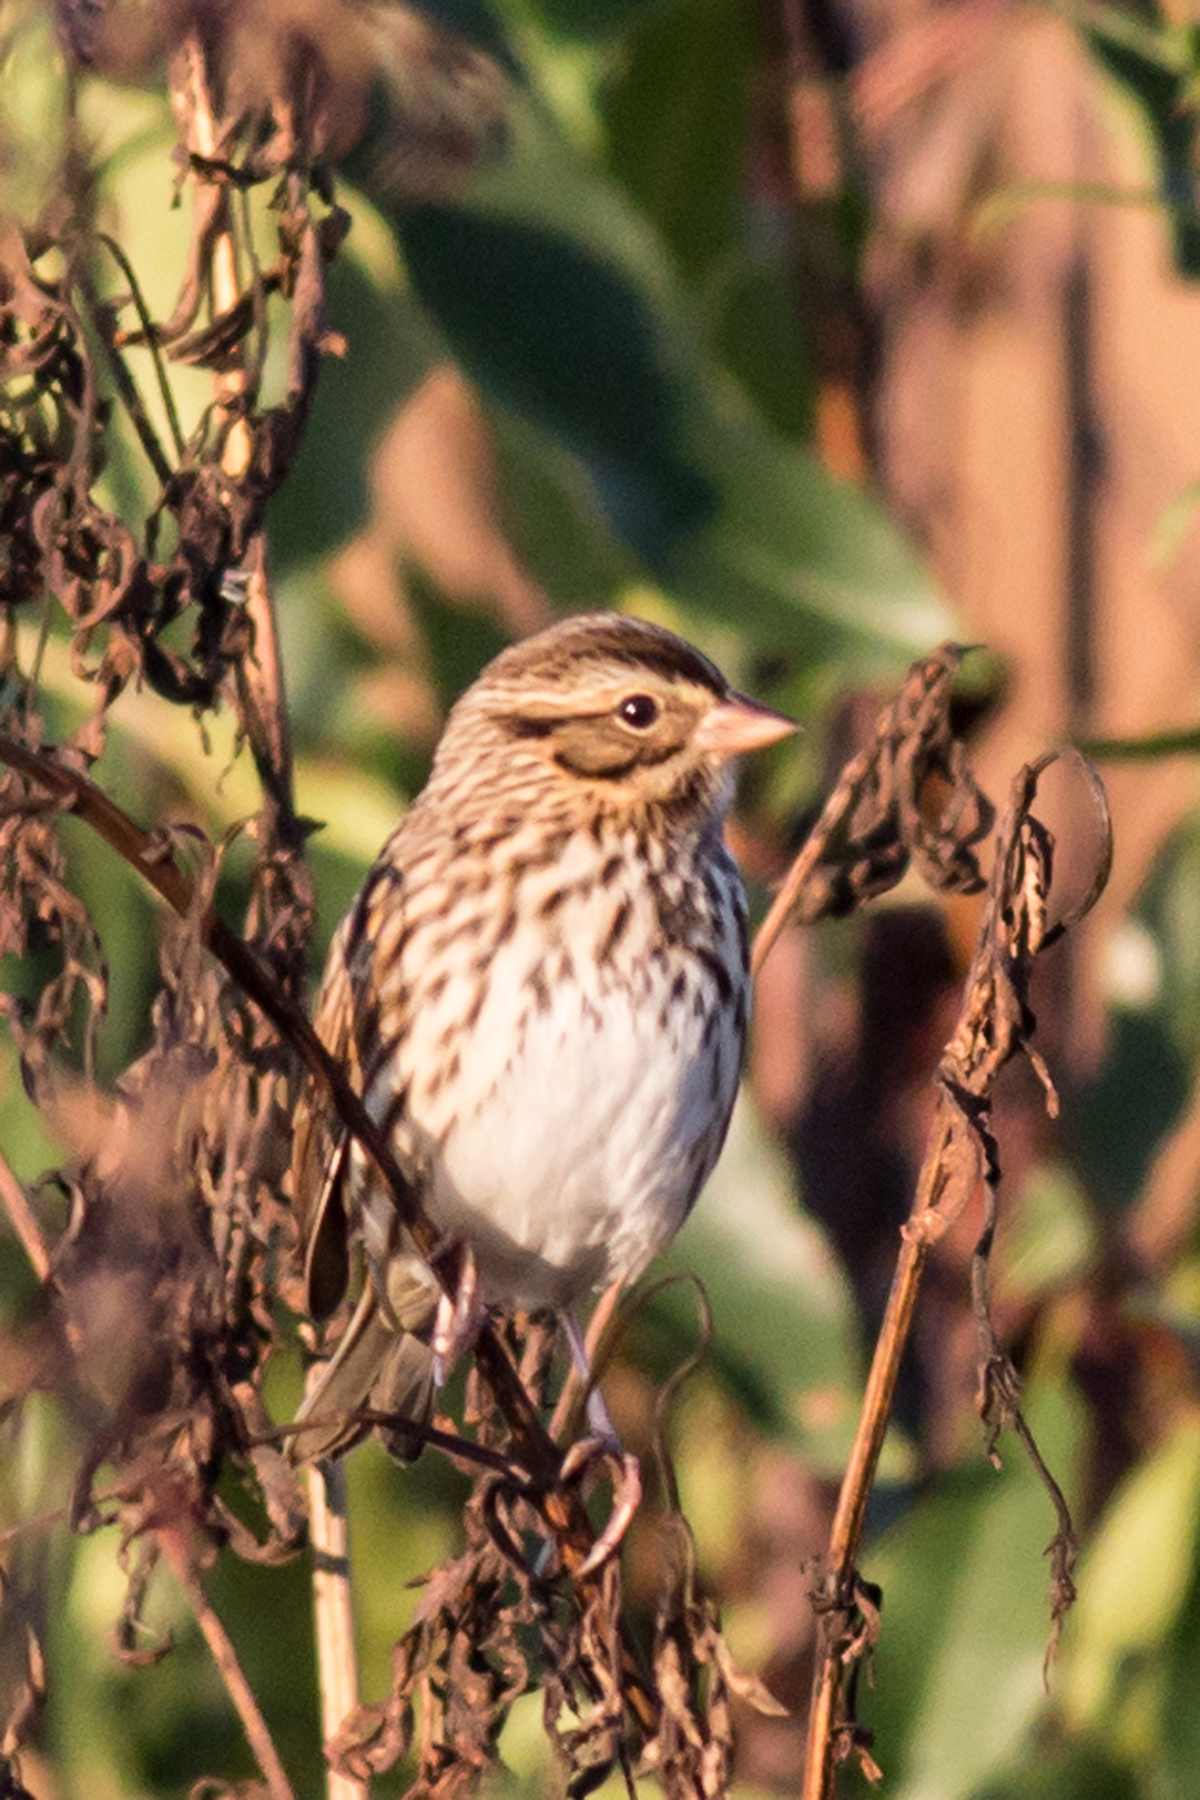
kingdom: Animalia
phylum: Chordata
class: Aves
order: Passeriformes
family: Passerellidae
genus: Passerculus
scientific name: Passerculus sandwichensis
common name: Savannah sparrow
